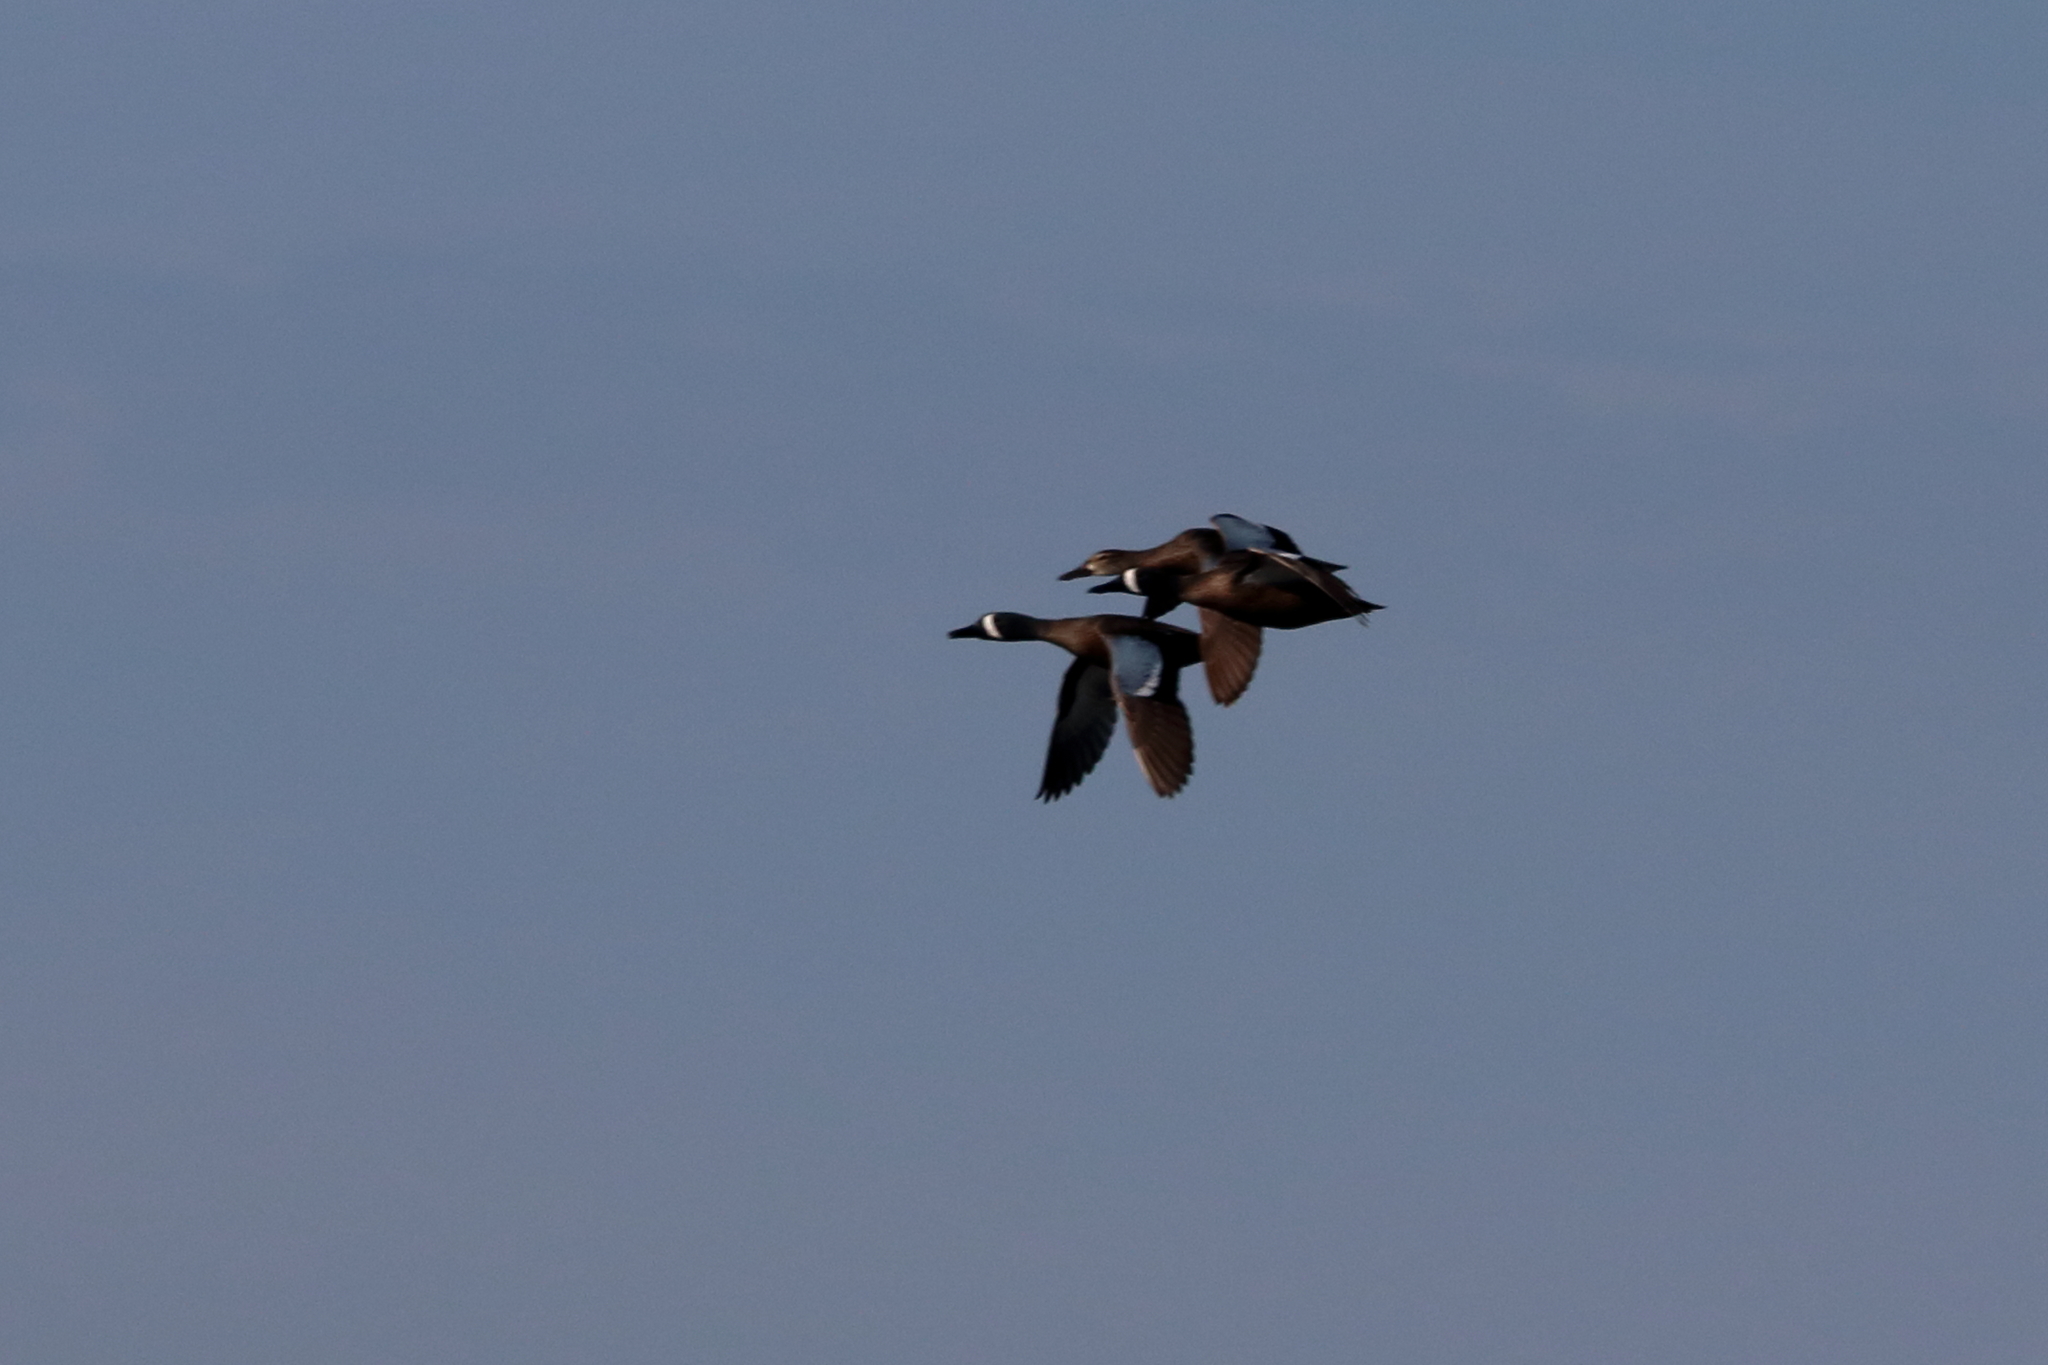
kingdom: Animalia
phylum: Chordata
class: Aves
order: Anseriformes
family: Anatidae
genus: Spatula
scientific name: Spatula discors
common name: Blue-winged teal
